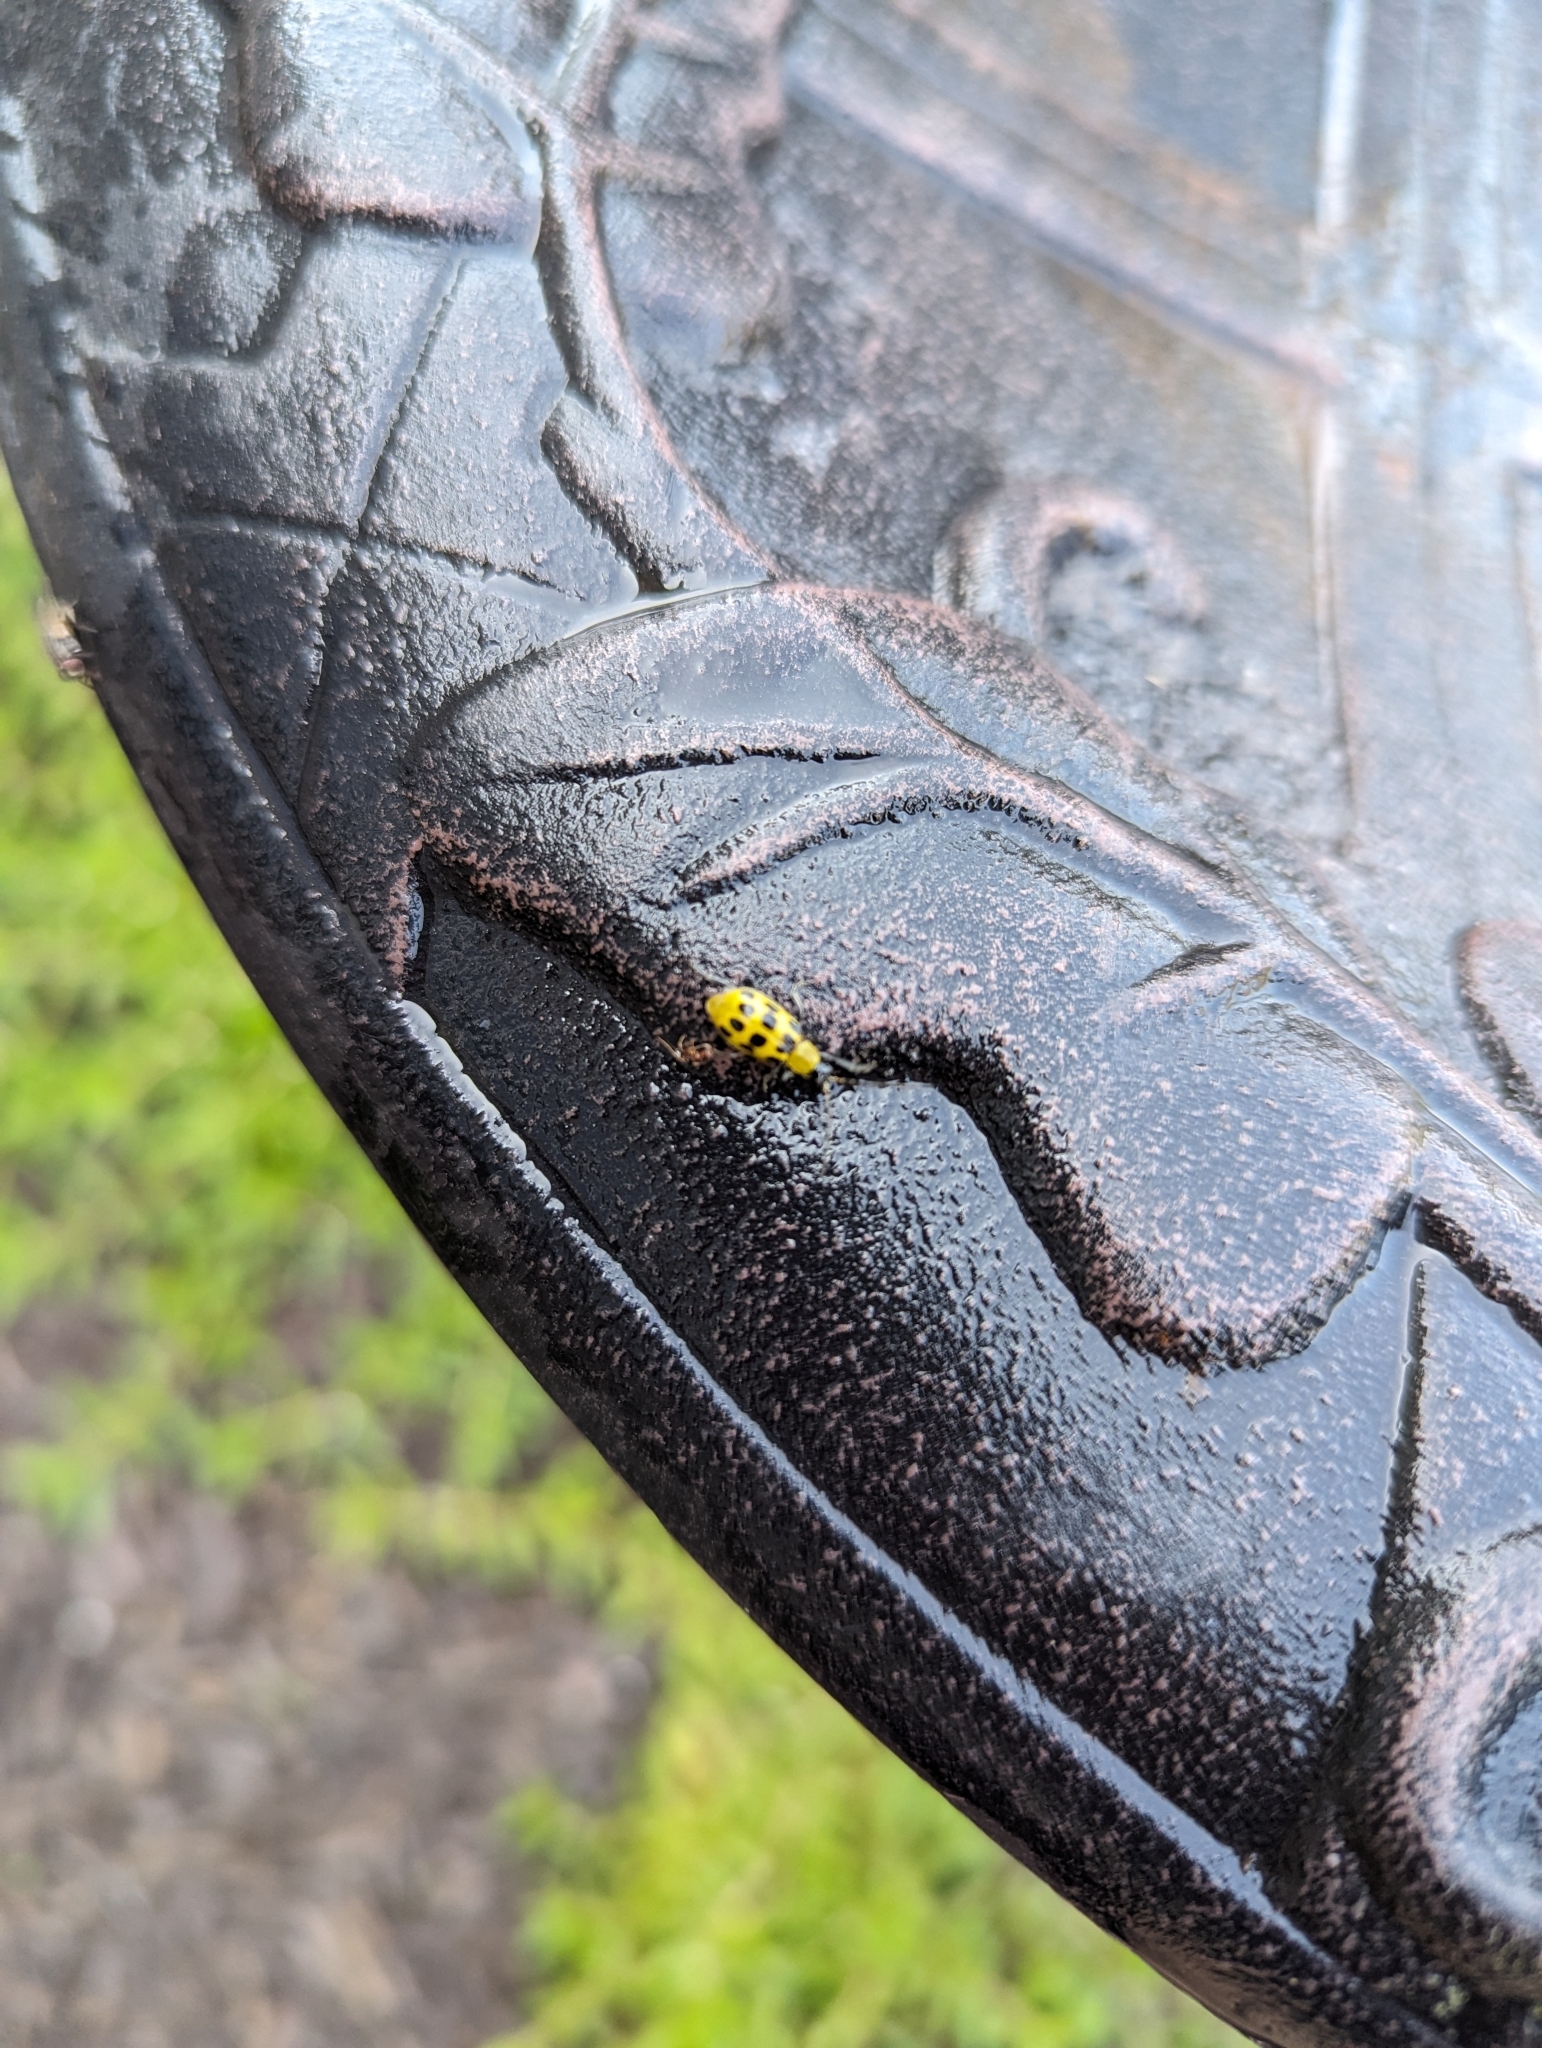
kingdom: Animalia
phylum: Arthropoda
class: Insecta
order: Coleoptera
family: Chrysomelidae
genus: Diabrotica
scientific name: Diabrotica undecimpunctata
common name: Spotted cucumber beetle
